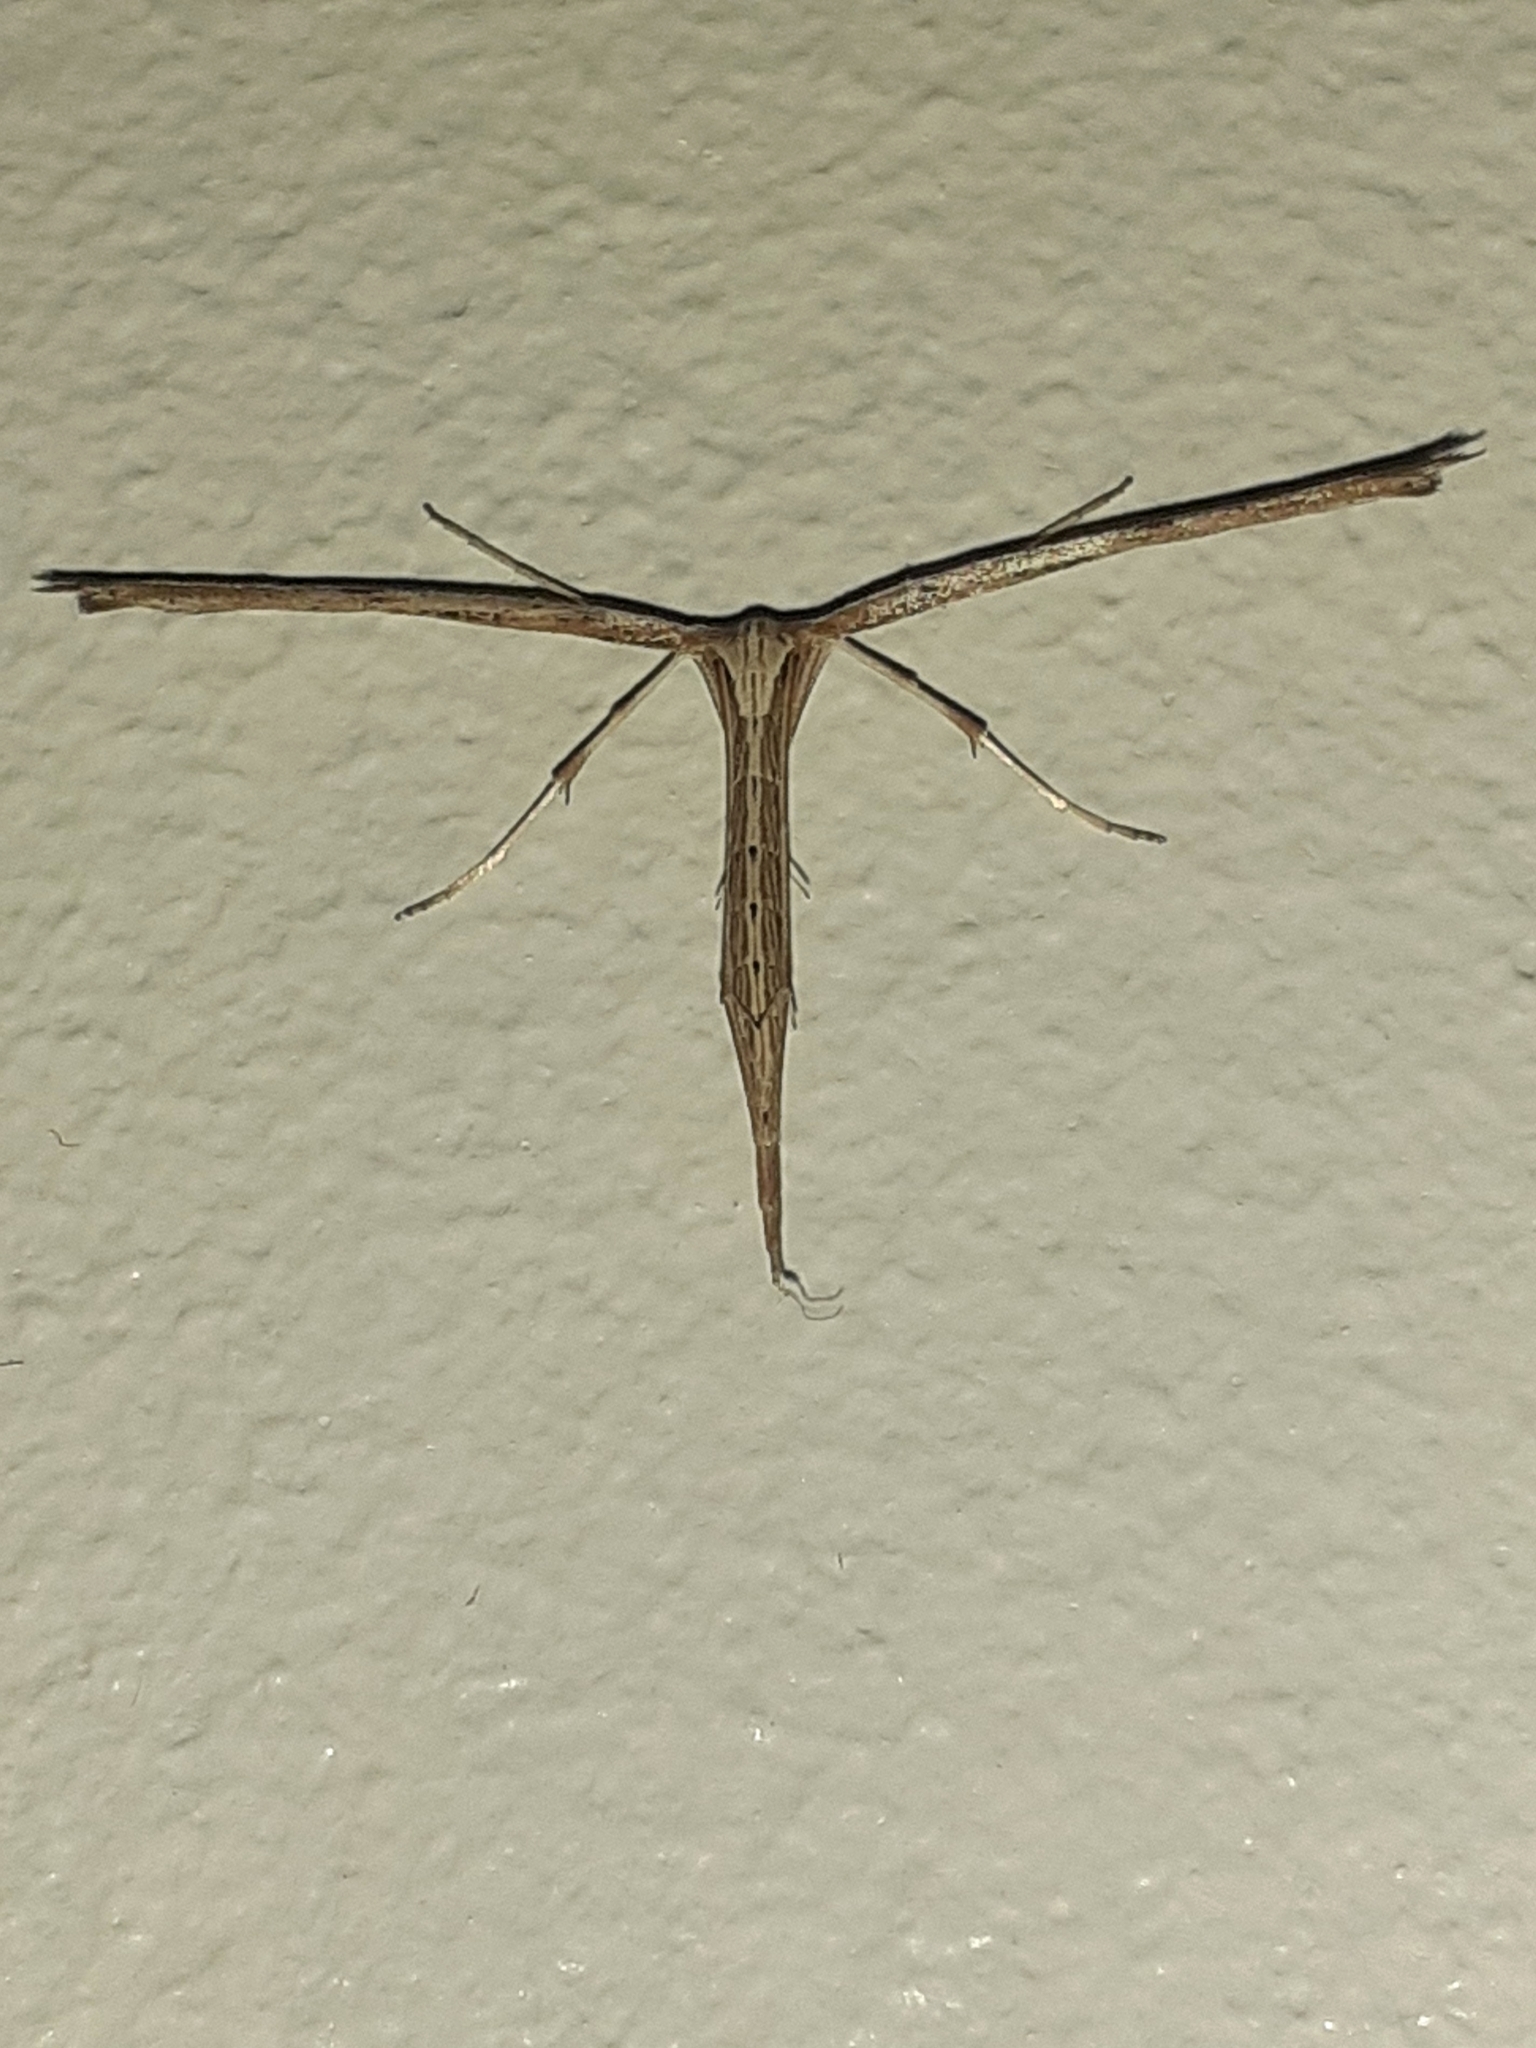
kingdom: Animalia
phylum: Arthropoda
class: Insecta
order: Lepidoptera
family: Pterophoridae
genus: Emmelina
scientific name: Emmelina monodactyla
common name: Common plume
